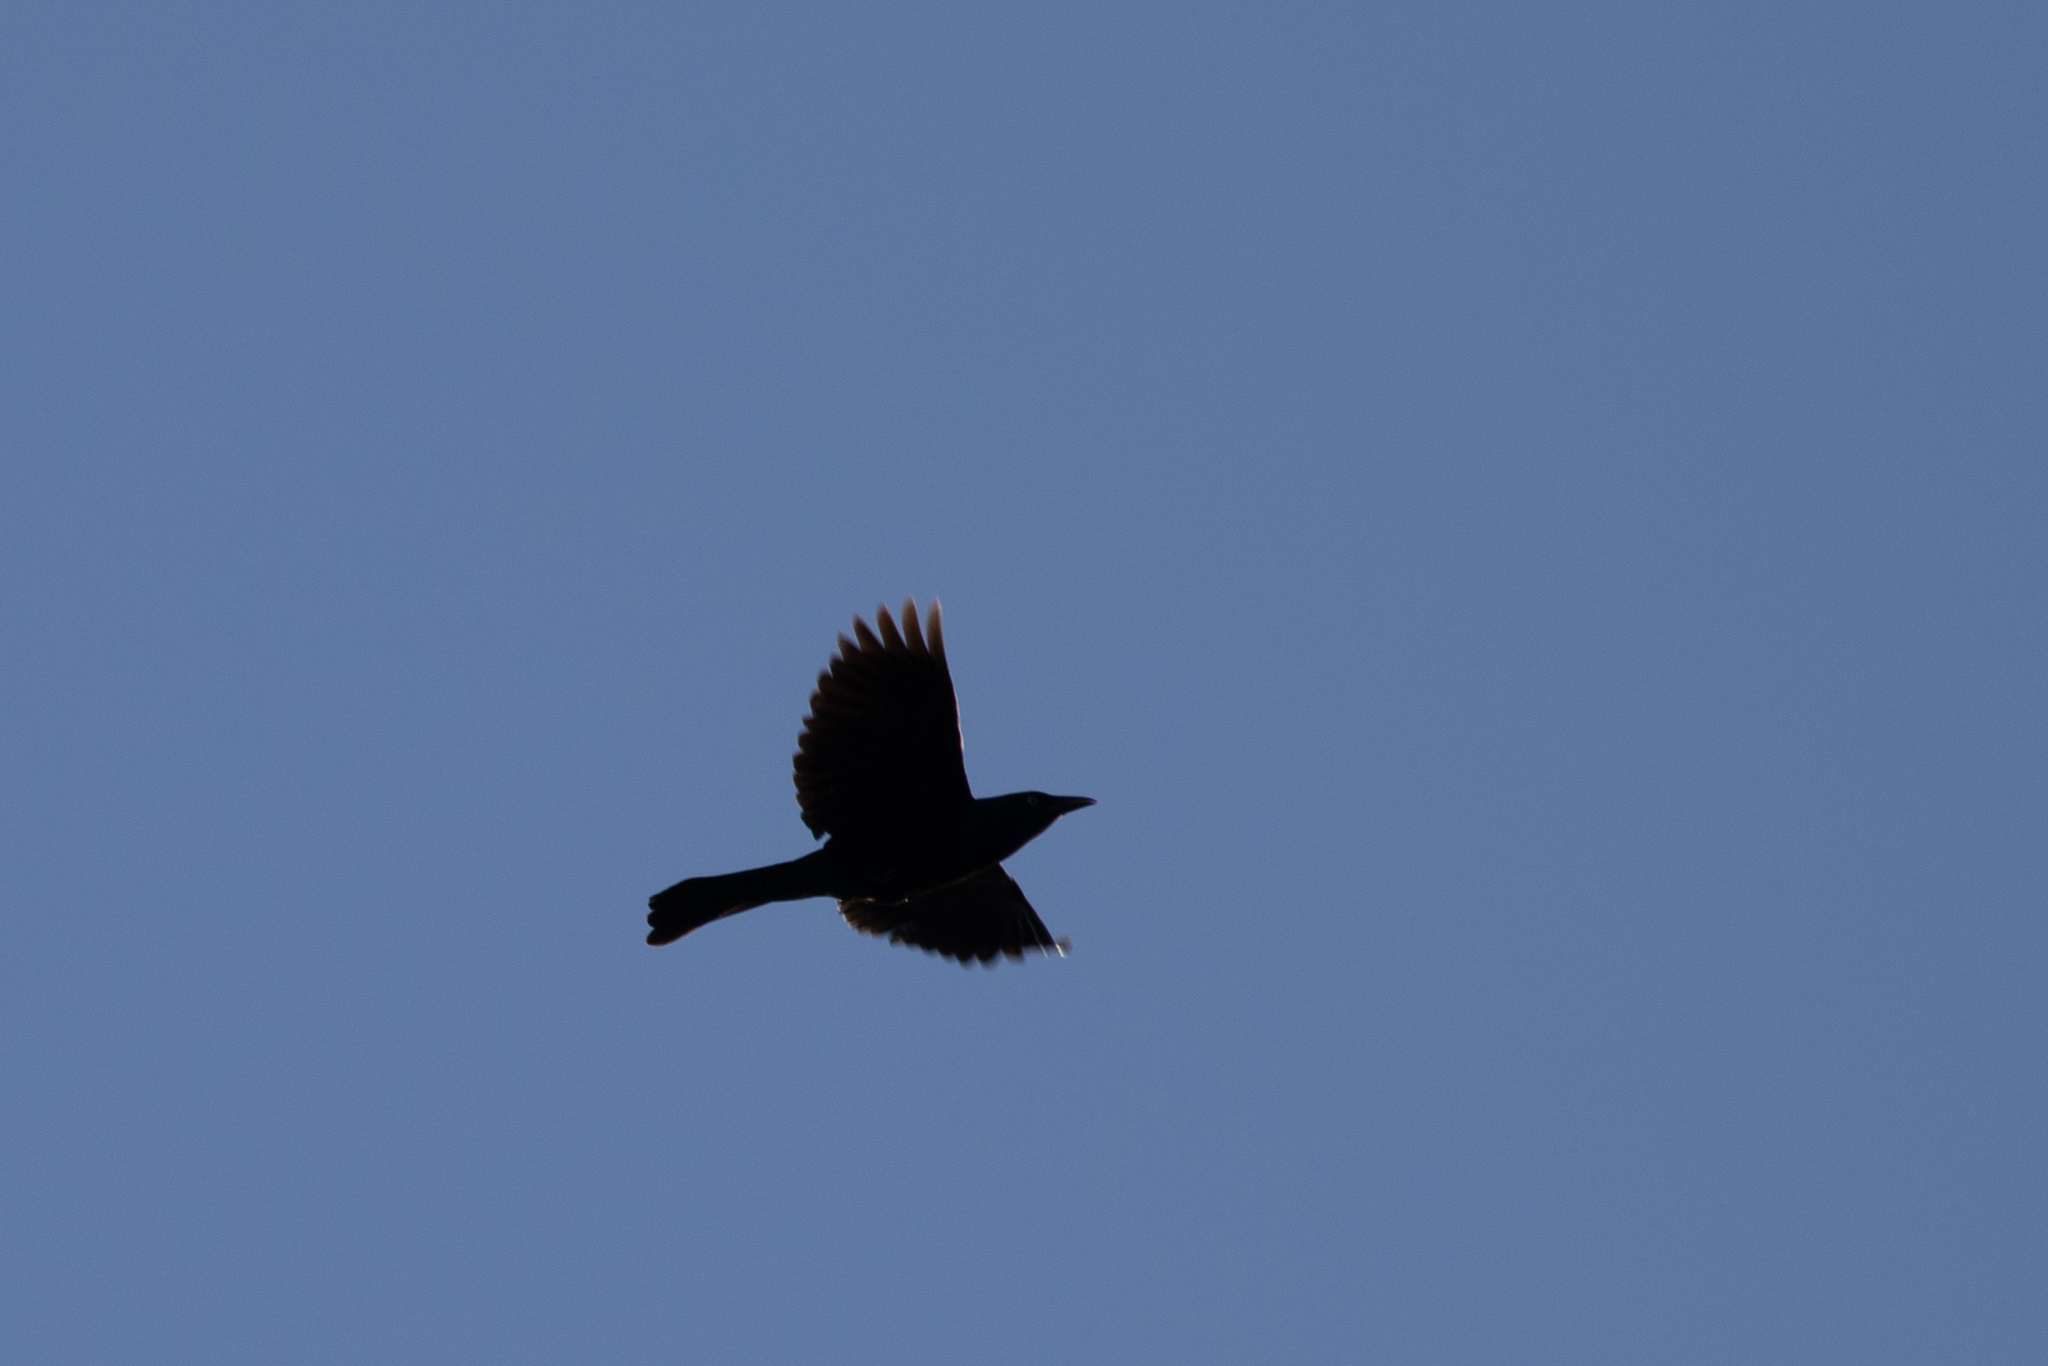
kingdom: Animalia
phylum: Chordata
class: Aves
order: Passeriformes
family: Icteridae
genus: Quiscalus
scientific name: Quiscalus quiscula
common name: Common grackle
